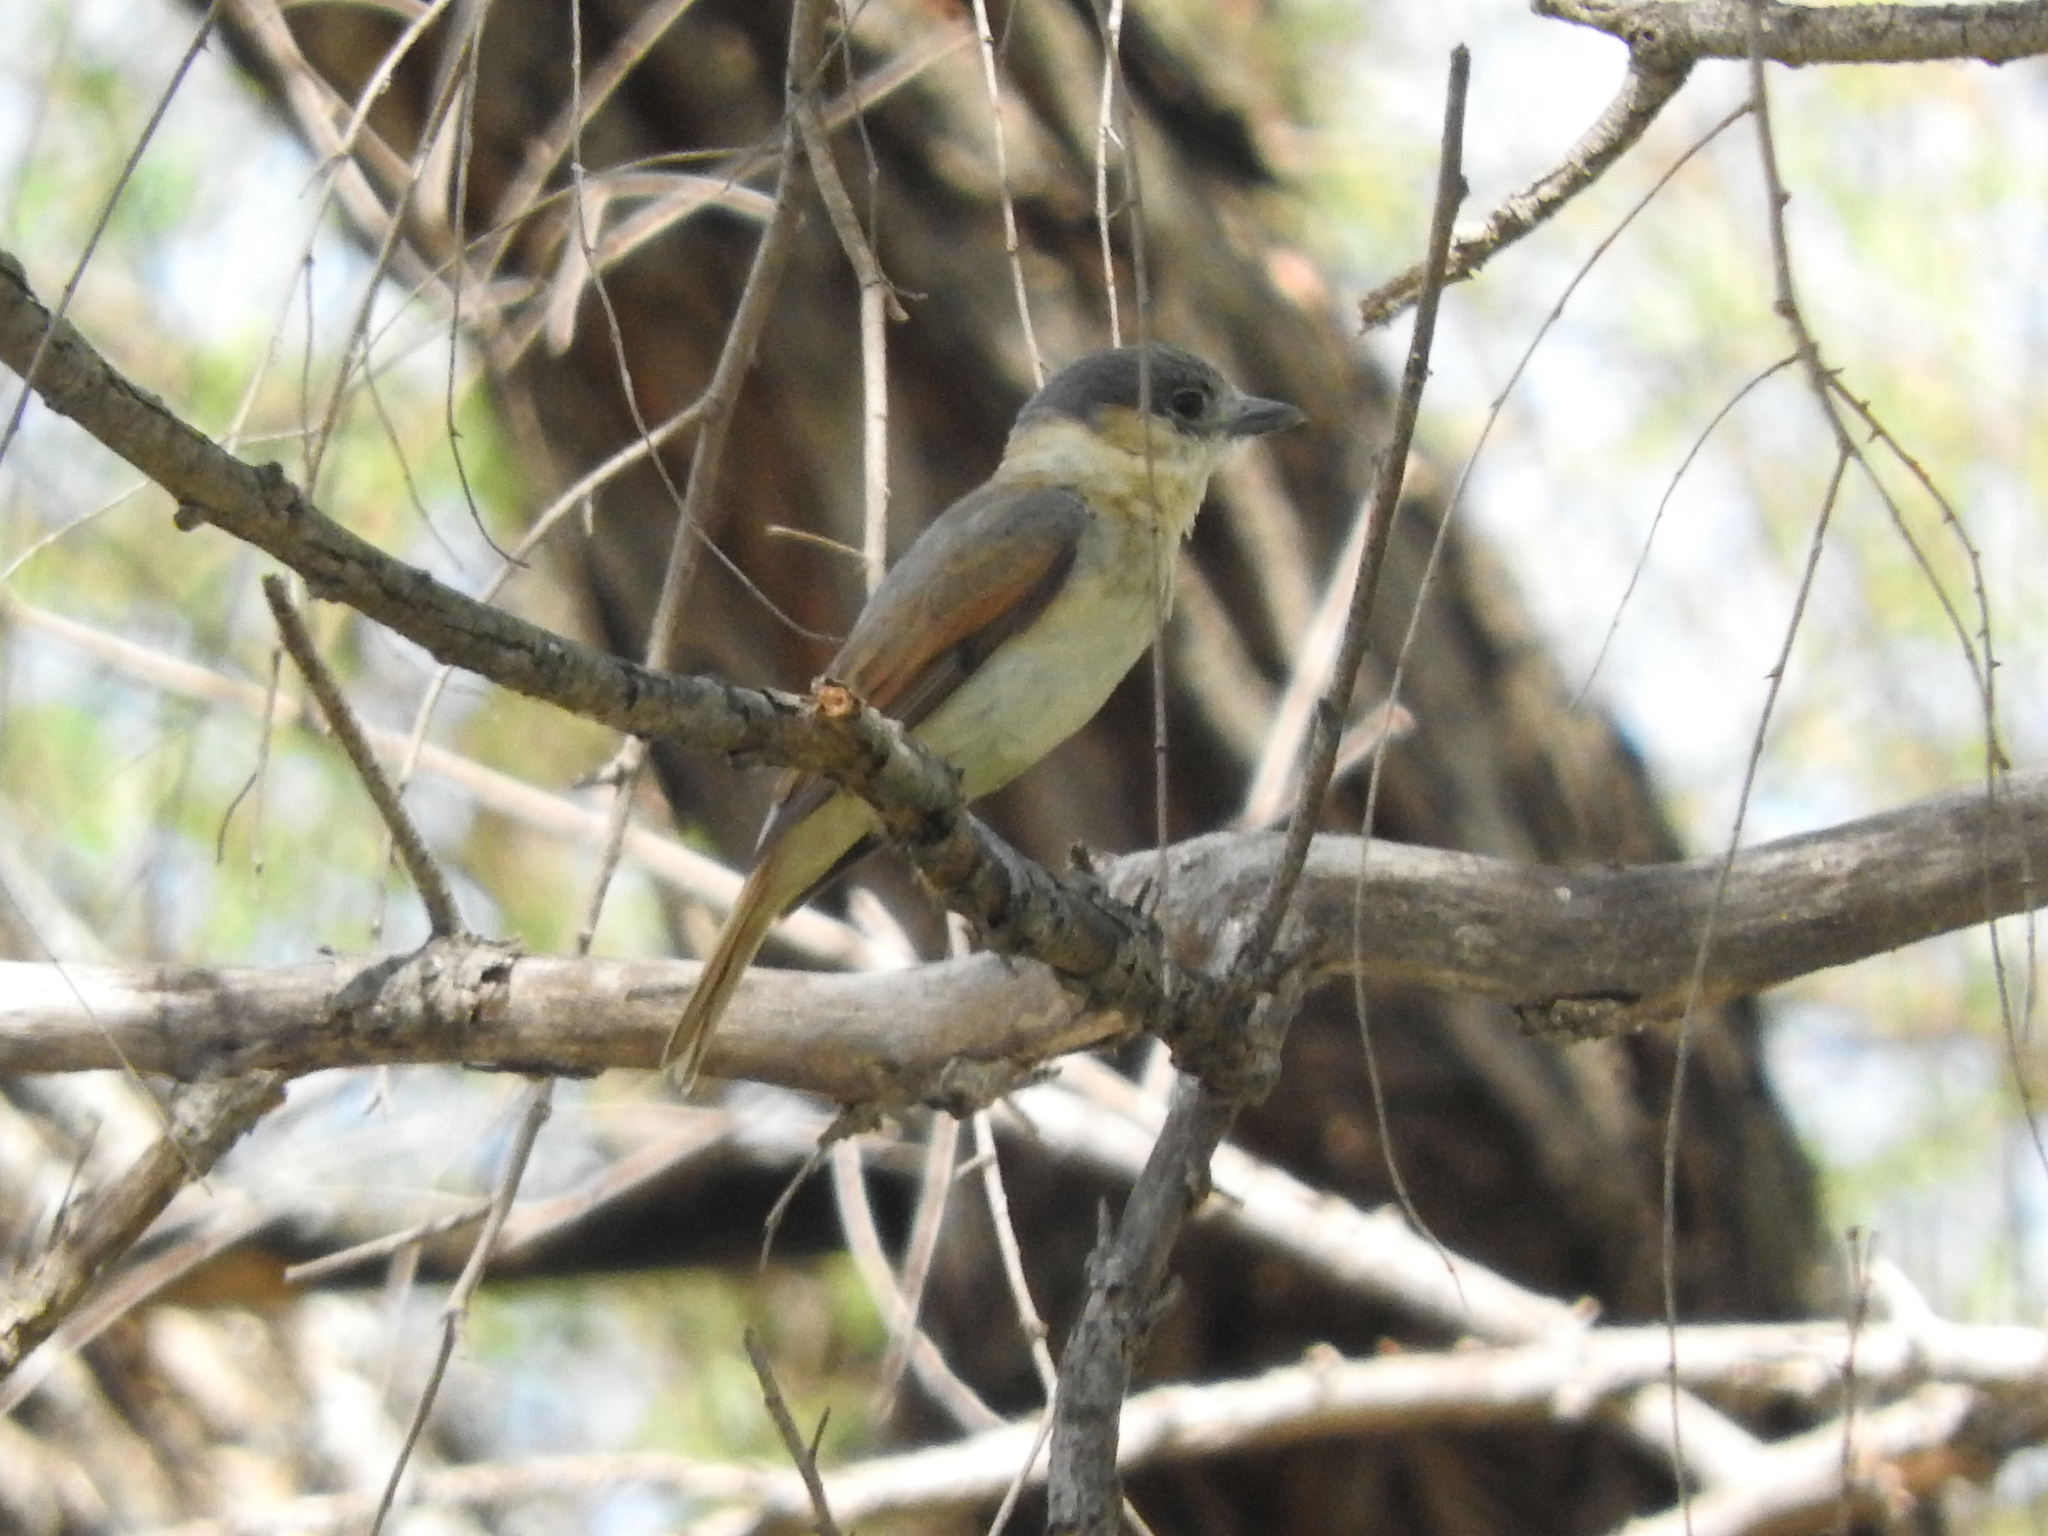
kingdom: Animalia
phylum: Chordata
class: Aves
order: Passeriformes
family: Cotingidae
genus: Pachyramphus
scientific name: Pachyramphus aglaiae
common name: Rose-throated becard
